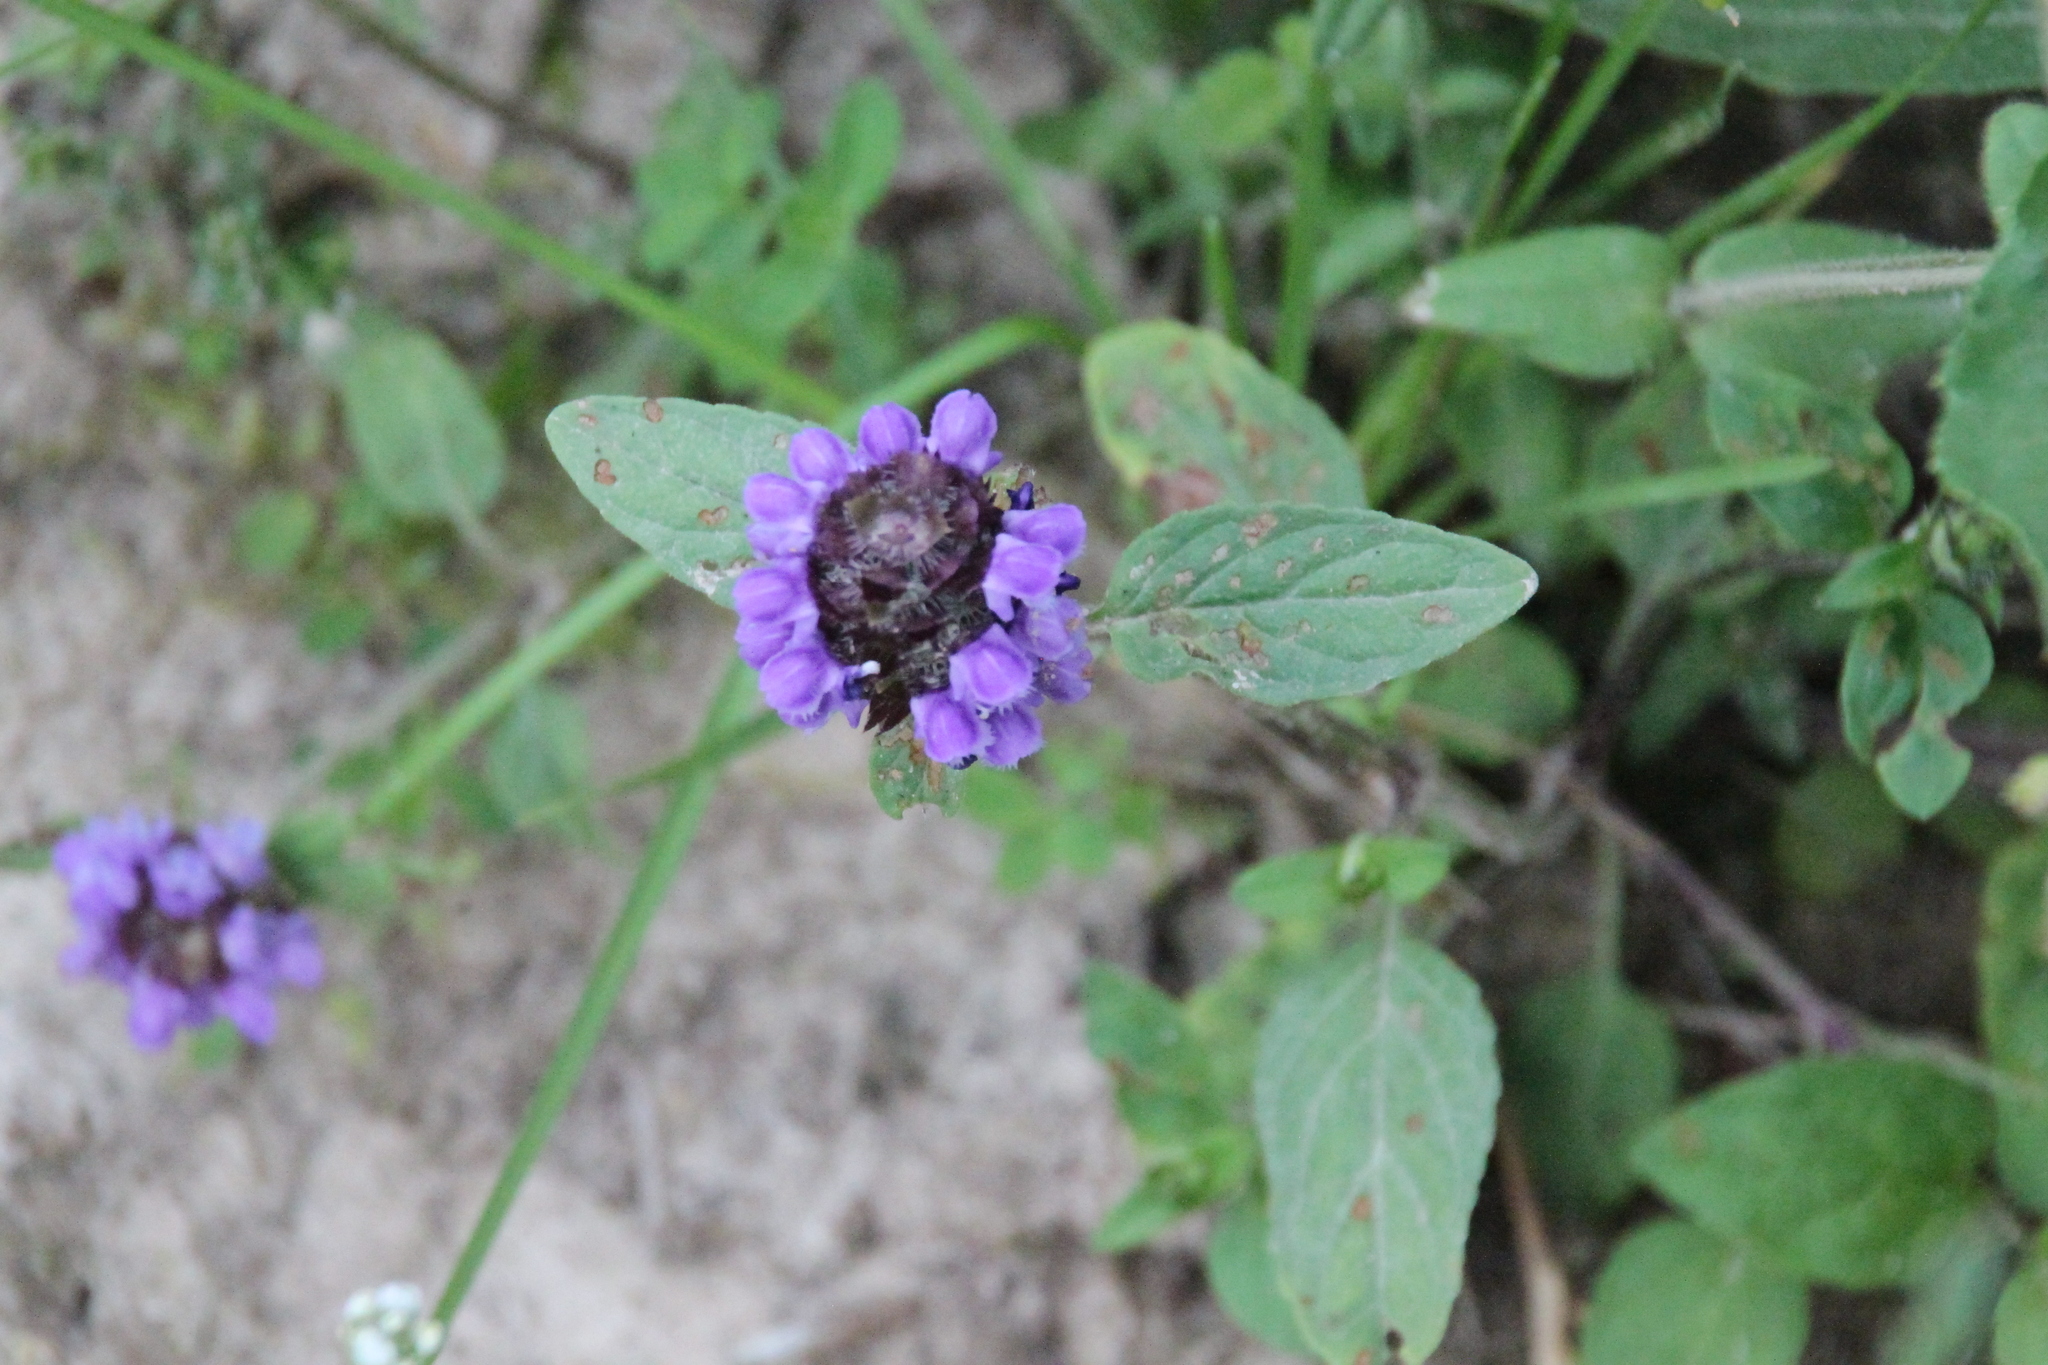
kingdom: Plantae
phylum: Tracheophyta
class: Magnoliopsida
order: Lamiales
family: Lamiaceae
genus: Prunella
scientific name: Prunella vulgaris
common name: Heal-all
